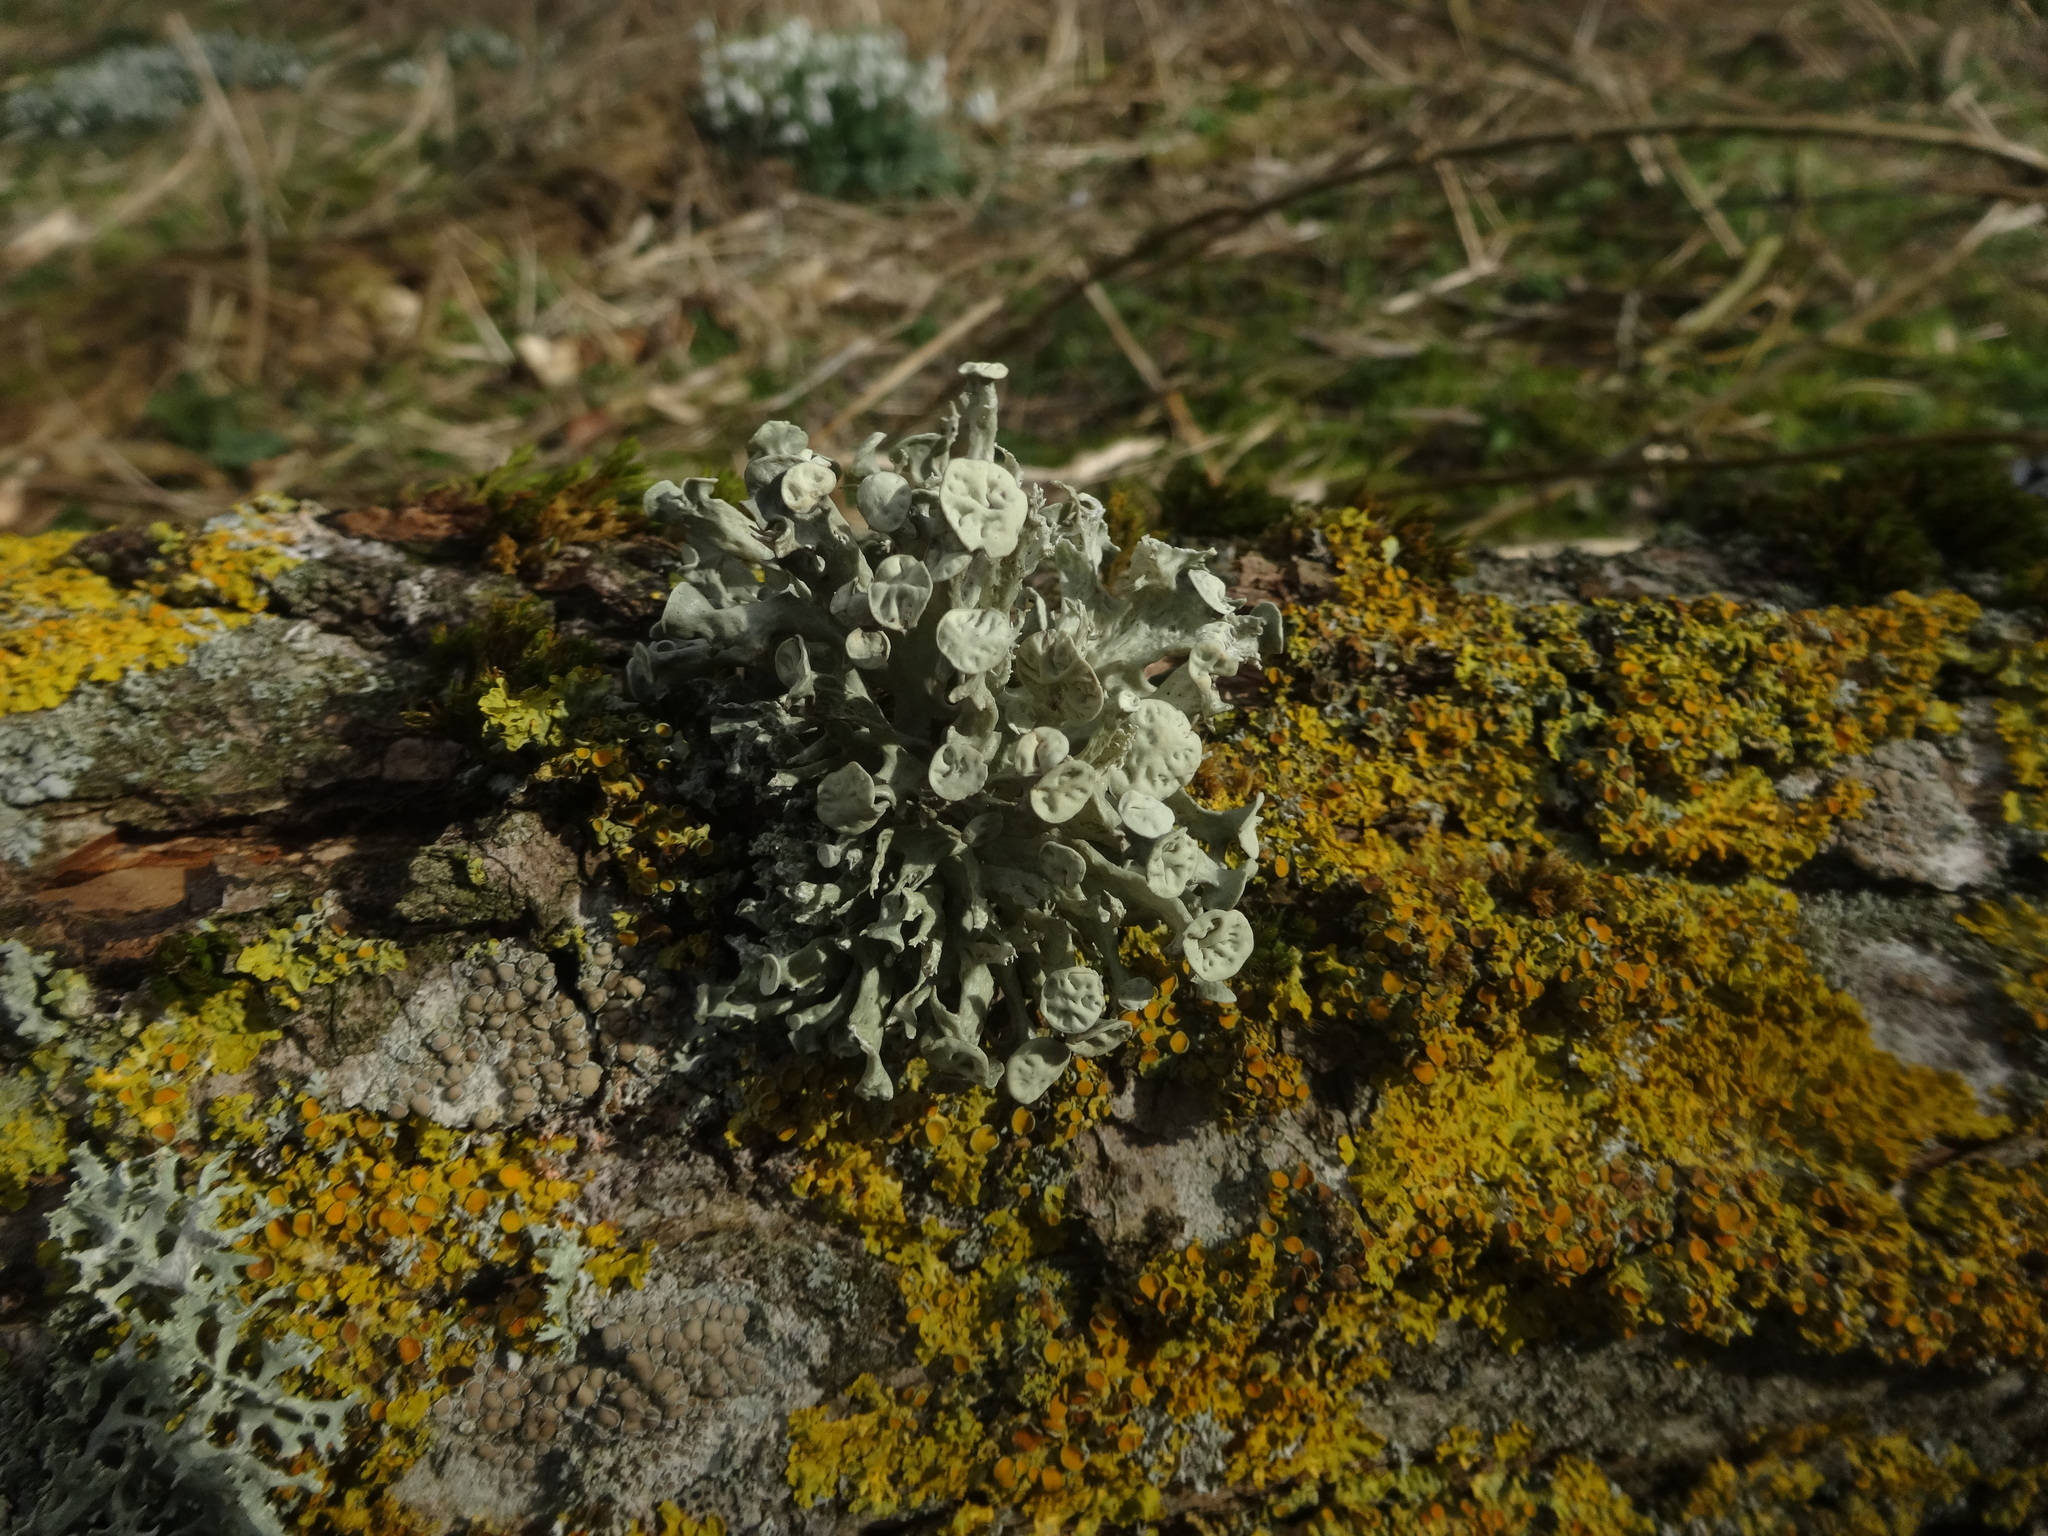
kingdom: Fungi
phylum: Ascomycota
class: Lecanoromycetes
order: Lecanorales
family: Ramalinaceae
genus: Ramalina
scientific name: Ramalina fastigiata
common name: Dotted ribbon lichen
